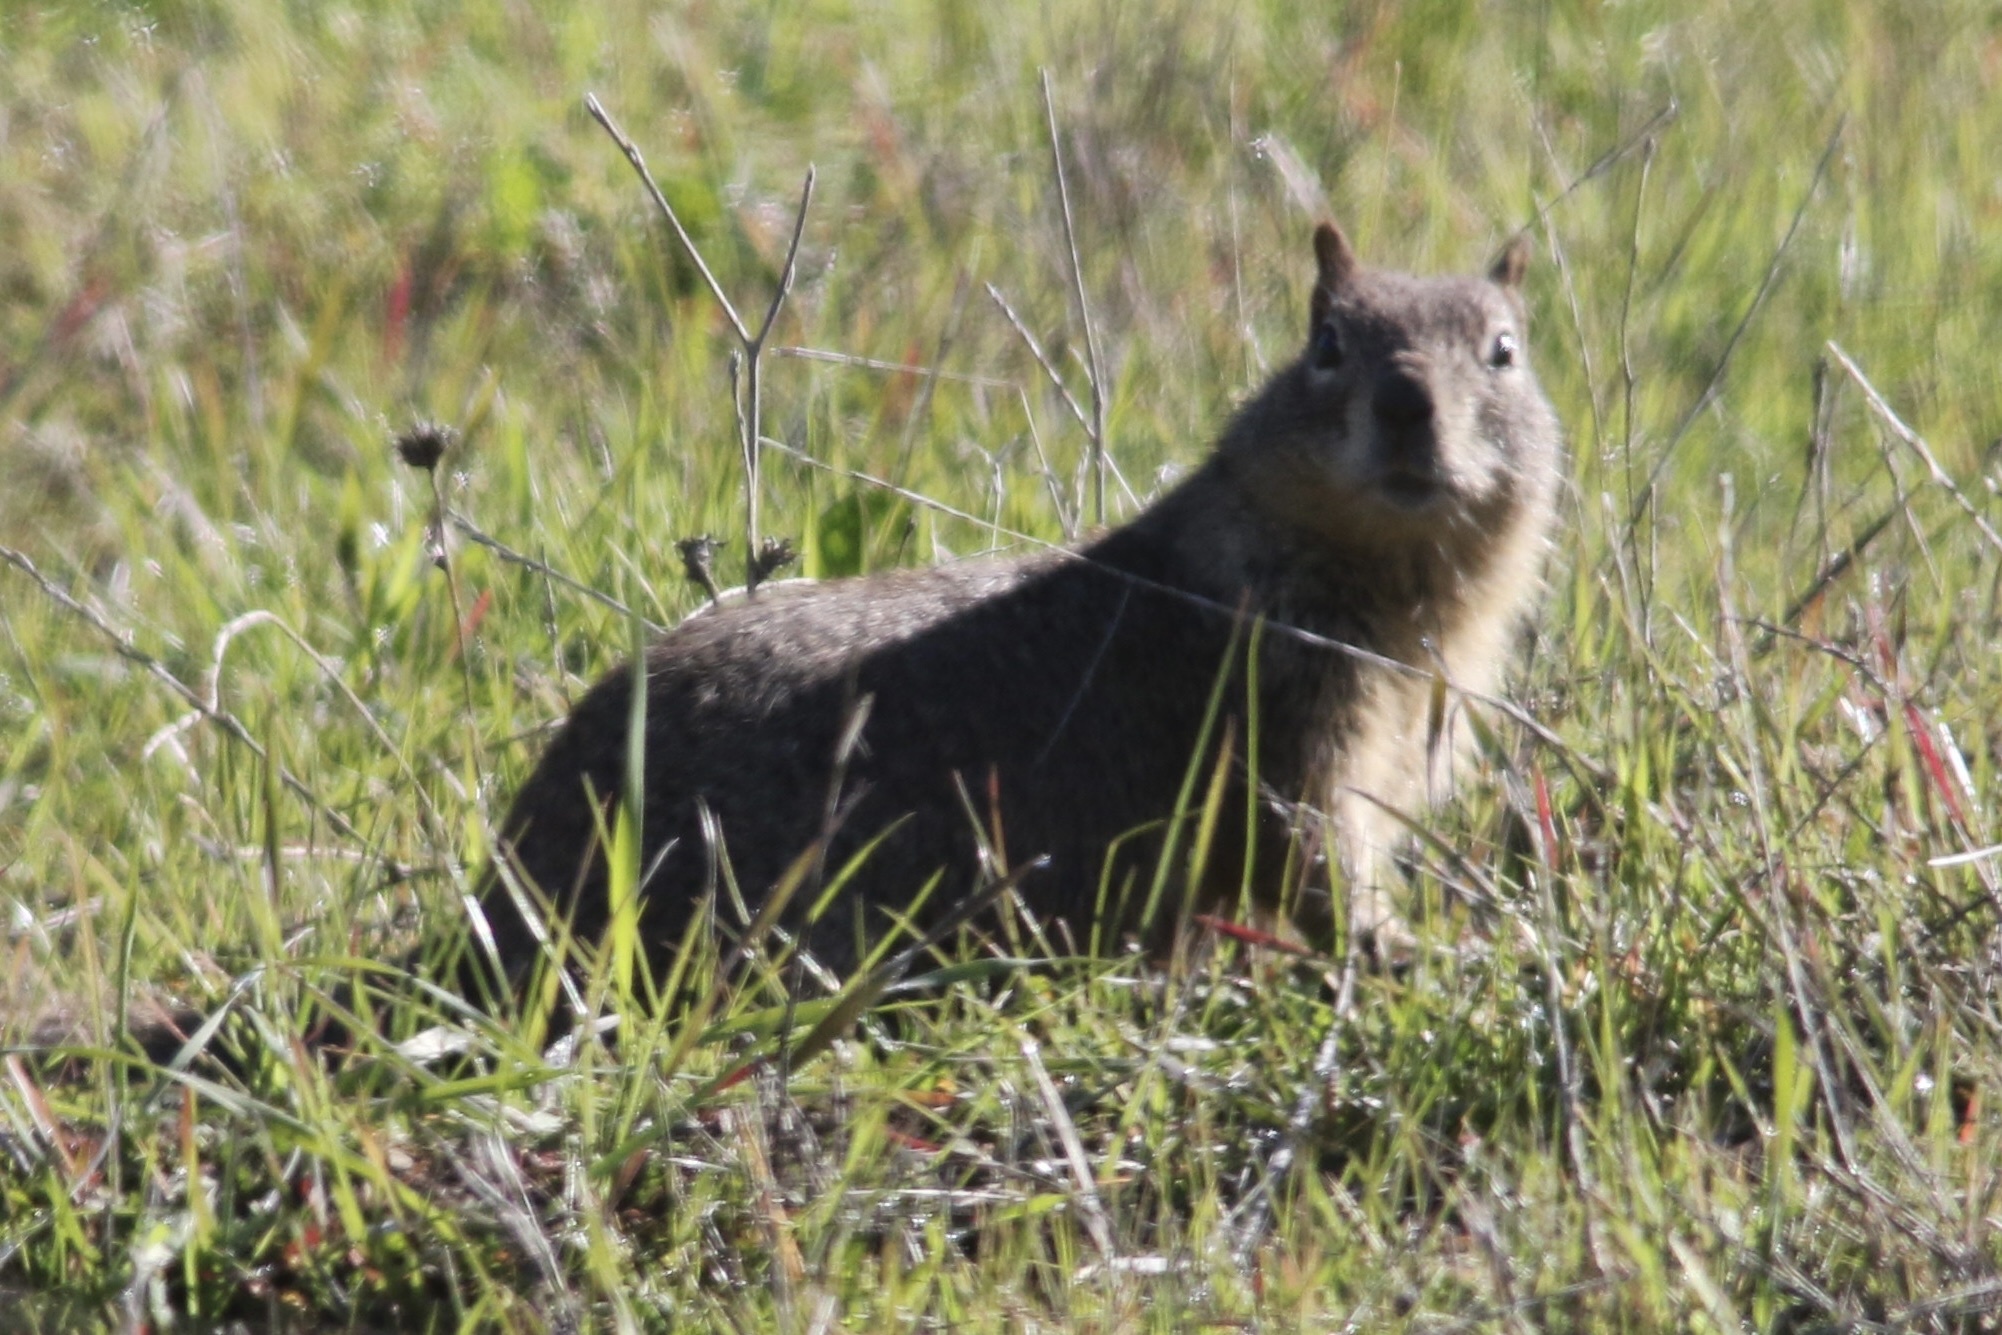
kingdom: Animalia
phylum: Chordata
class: Mammalia
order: Rodentia
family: Sciuridae
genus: Otospermophilus
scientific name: Otospermophilus beecheyi
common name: California ground squirrel
